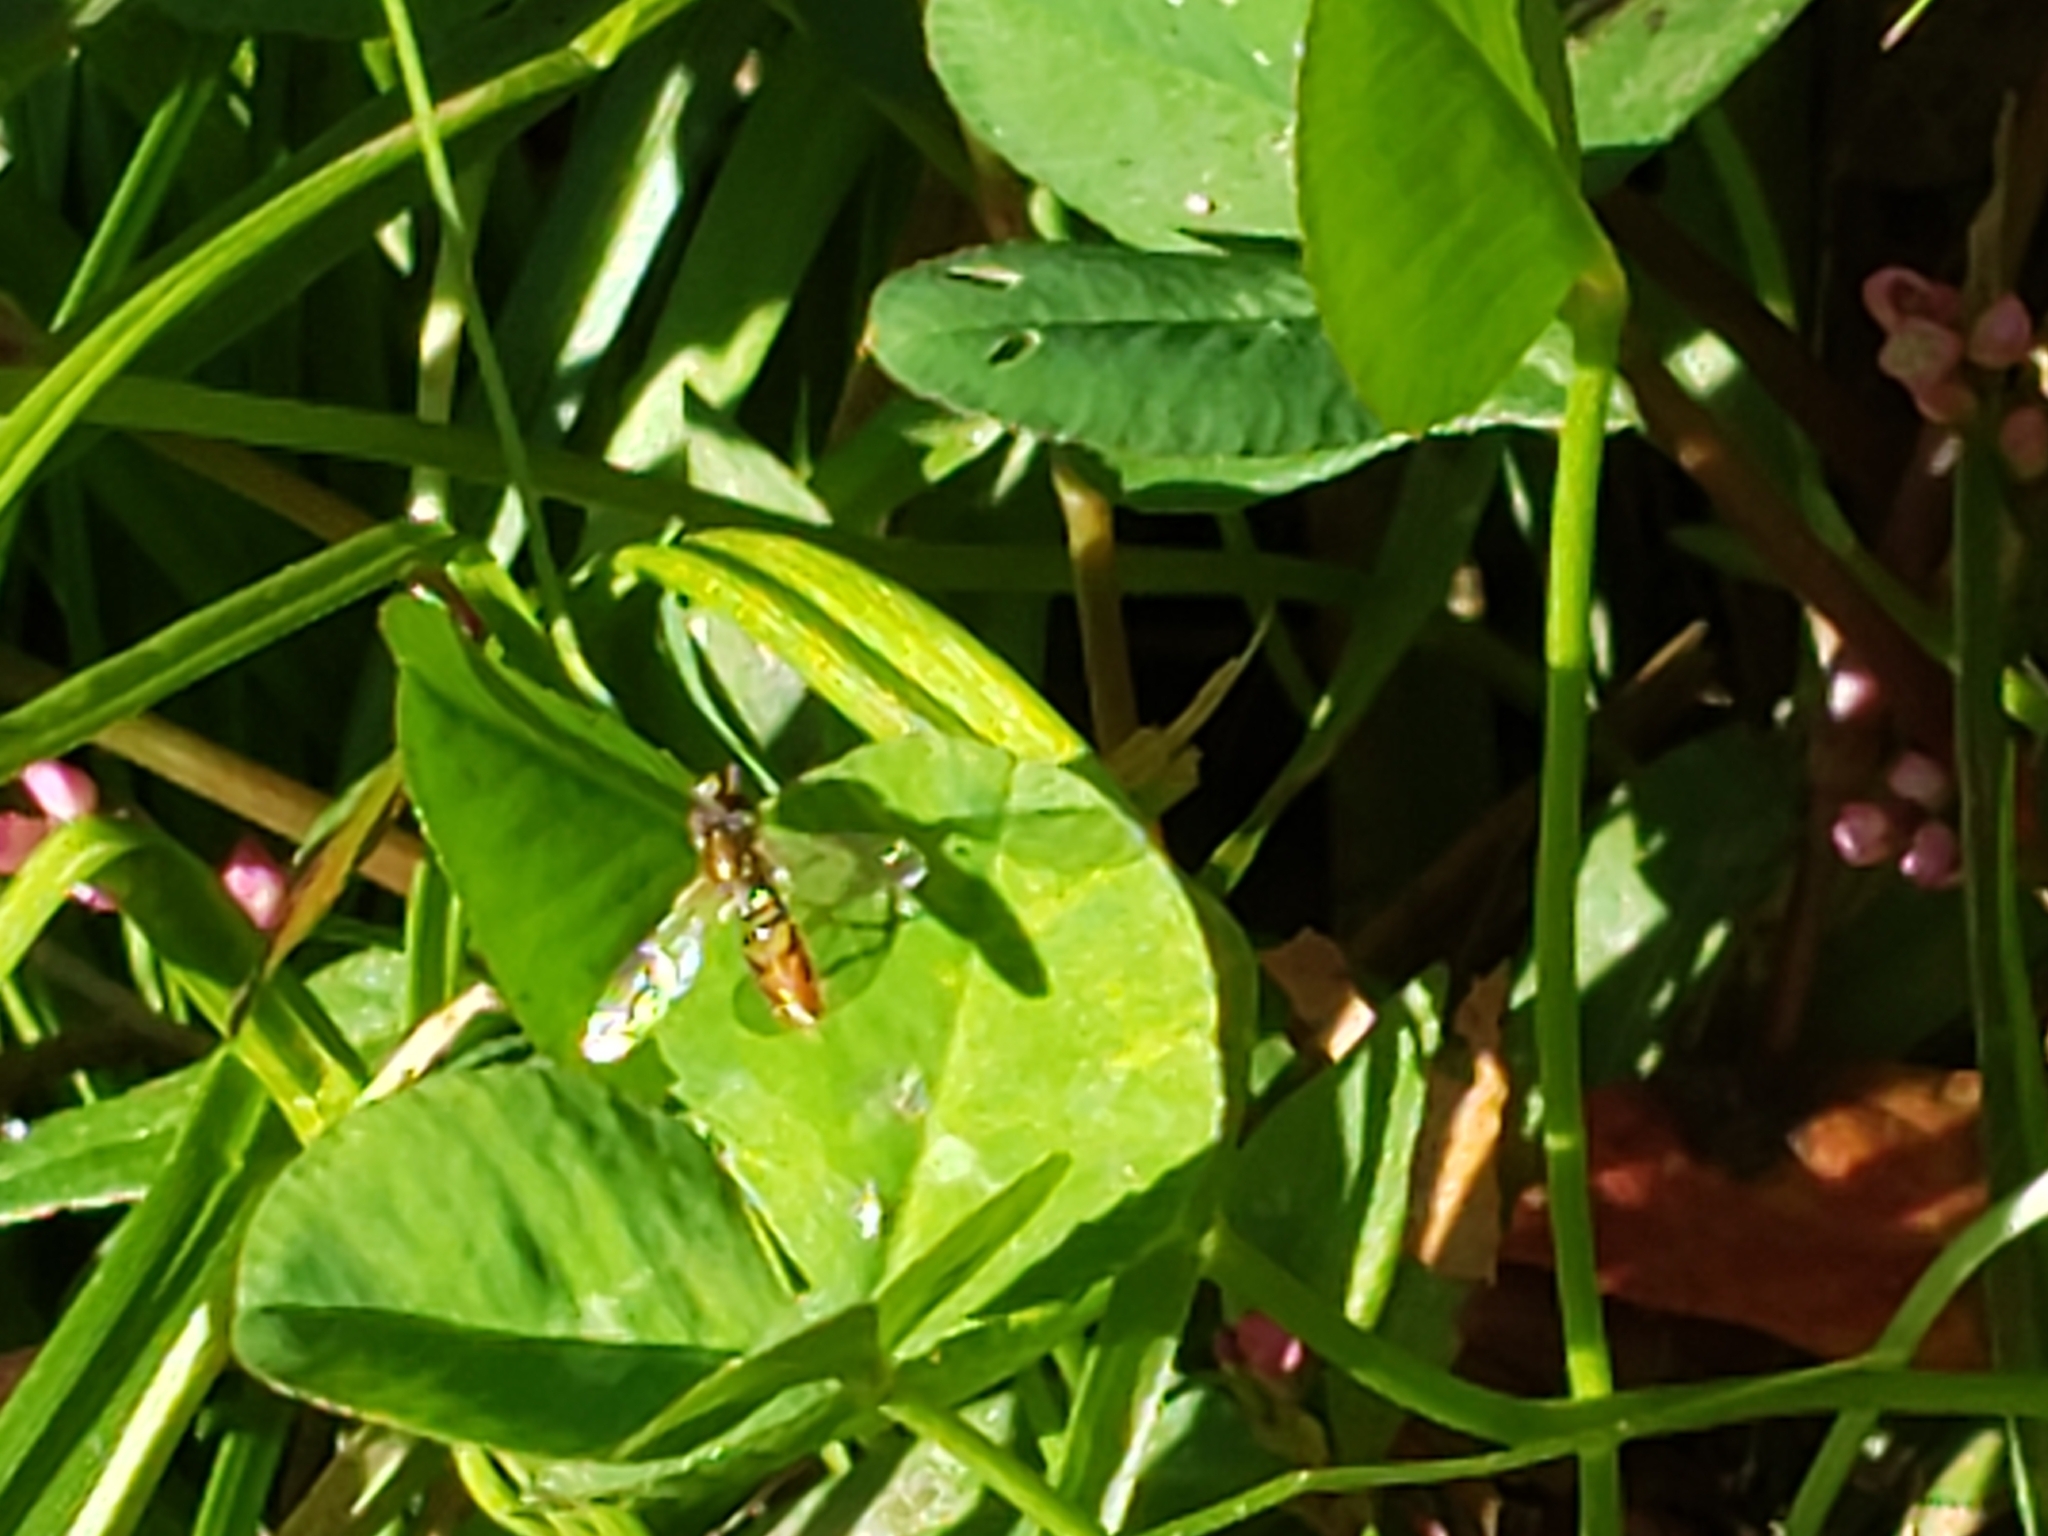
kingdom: Animalia
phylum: Arthropoda
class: Insecta
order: Diptera
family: Syrphidae
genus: Toxomerus
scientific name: Toxomerus marginatus
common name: Syrphid fly
